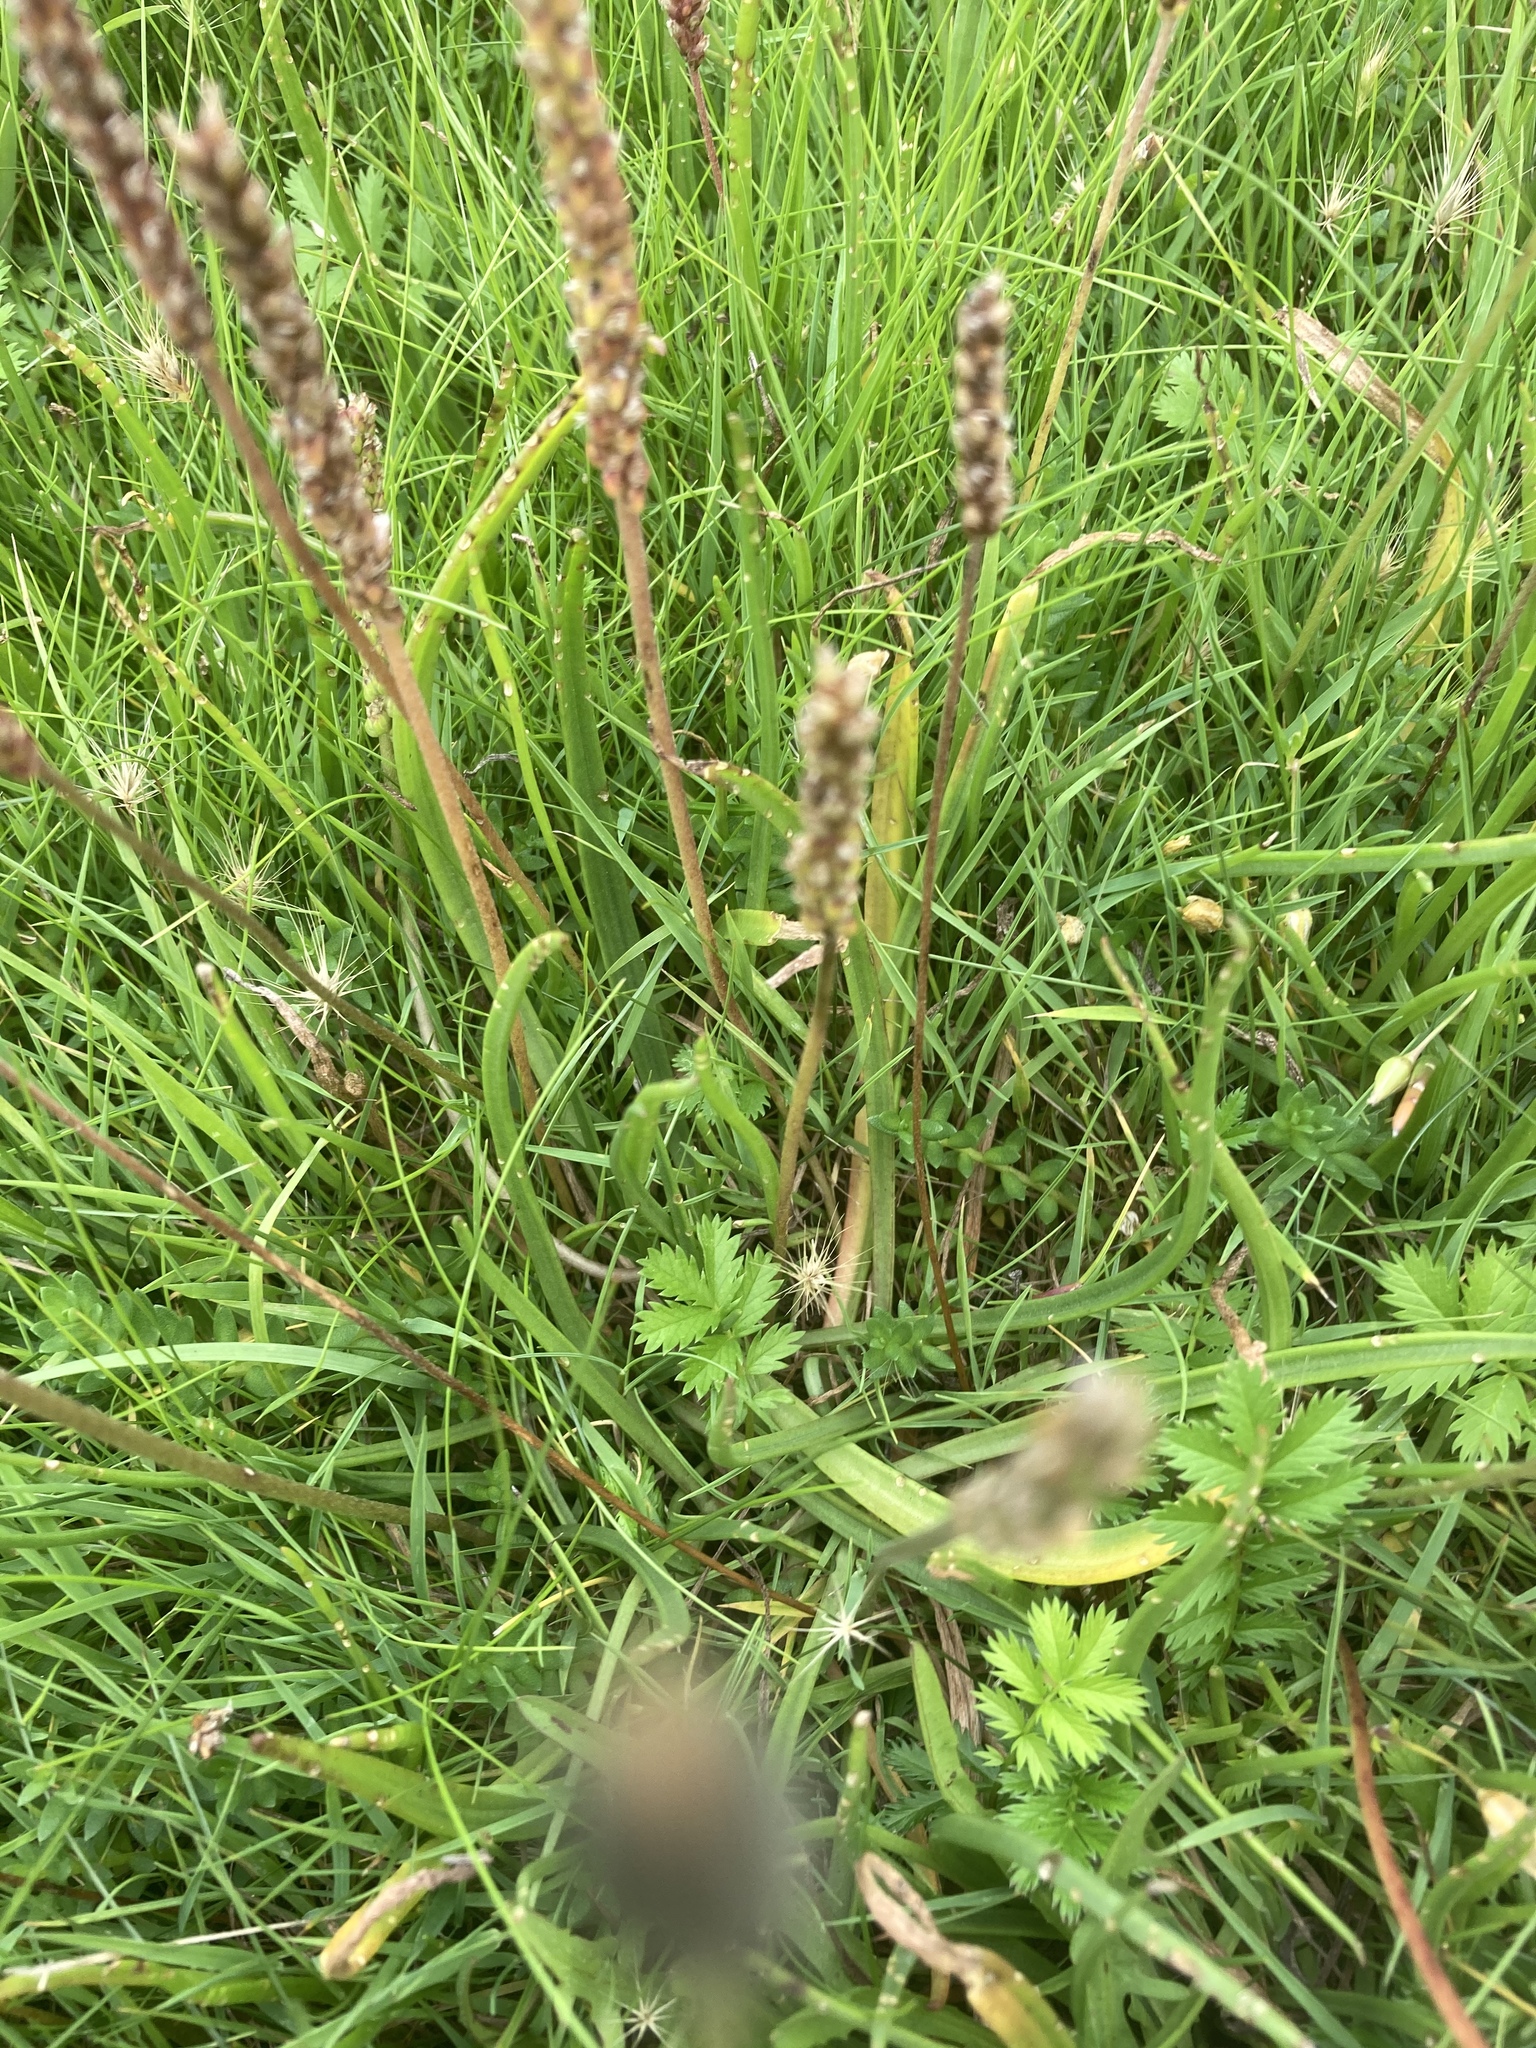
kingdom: Plantae
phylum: Tracheophyta
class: Magnoliopsida
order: Lamiales
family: Plantaginaceae
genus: Plantago
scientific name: Plantago maritima
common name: Sea plantain
